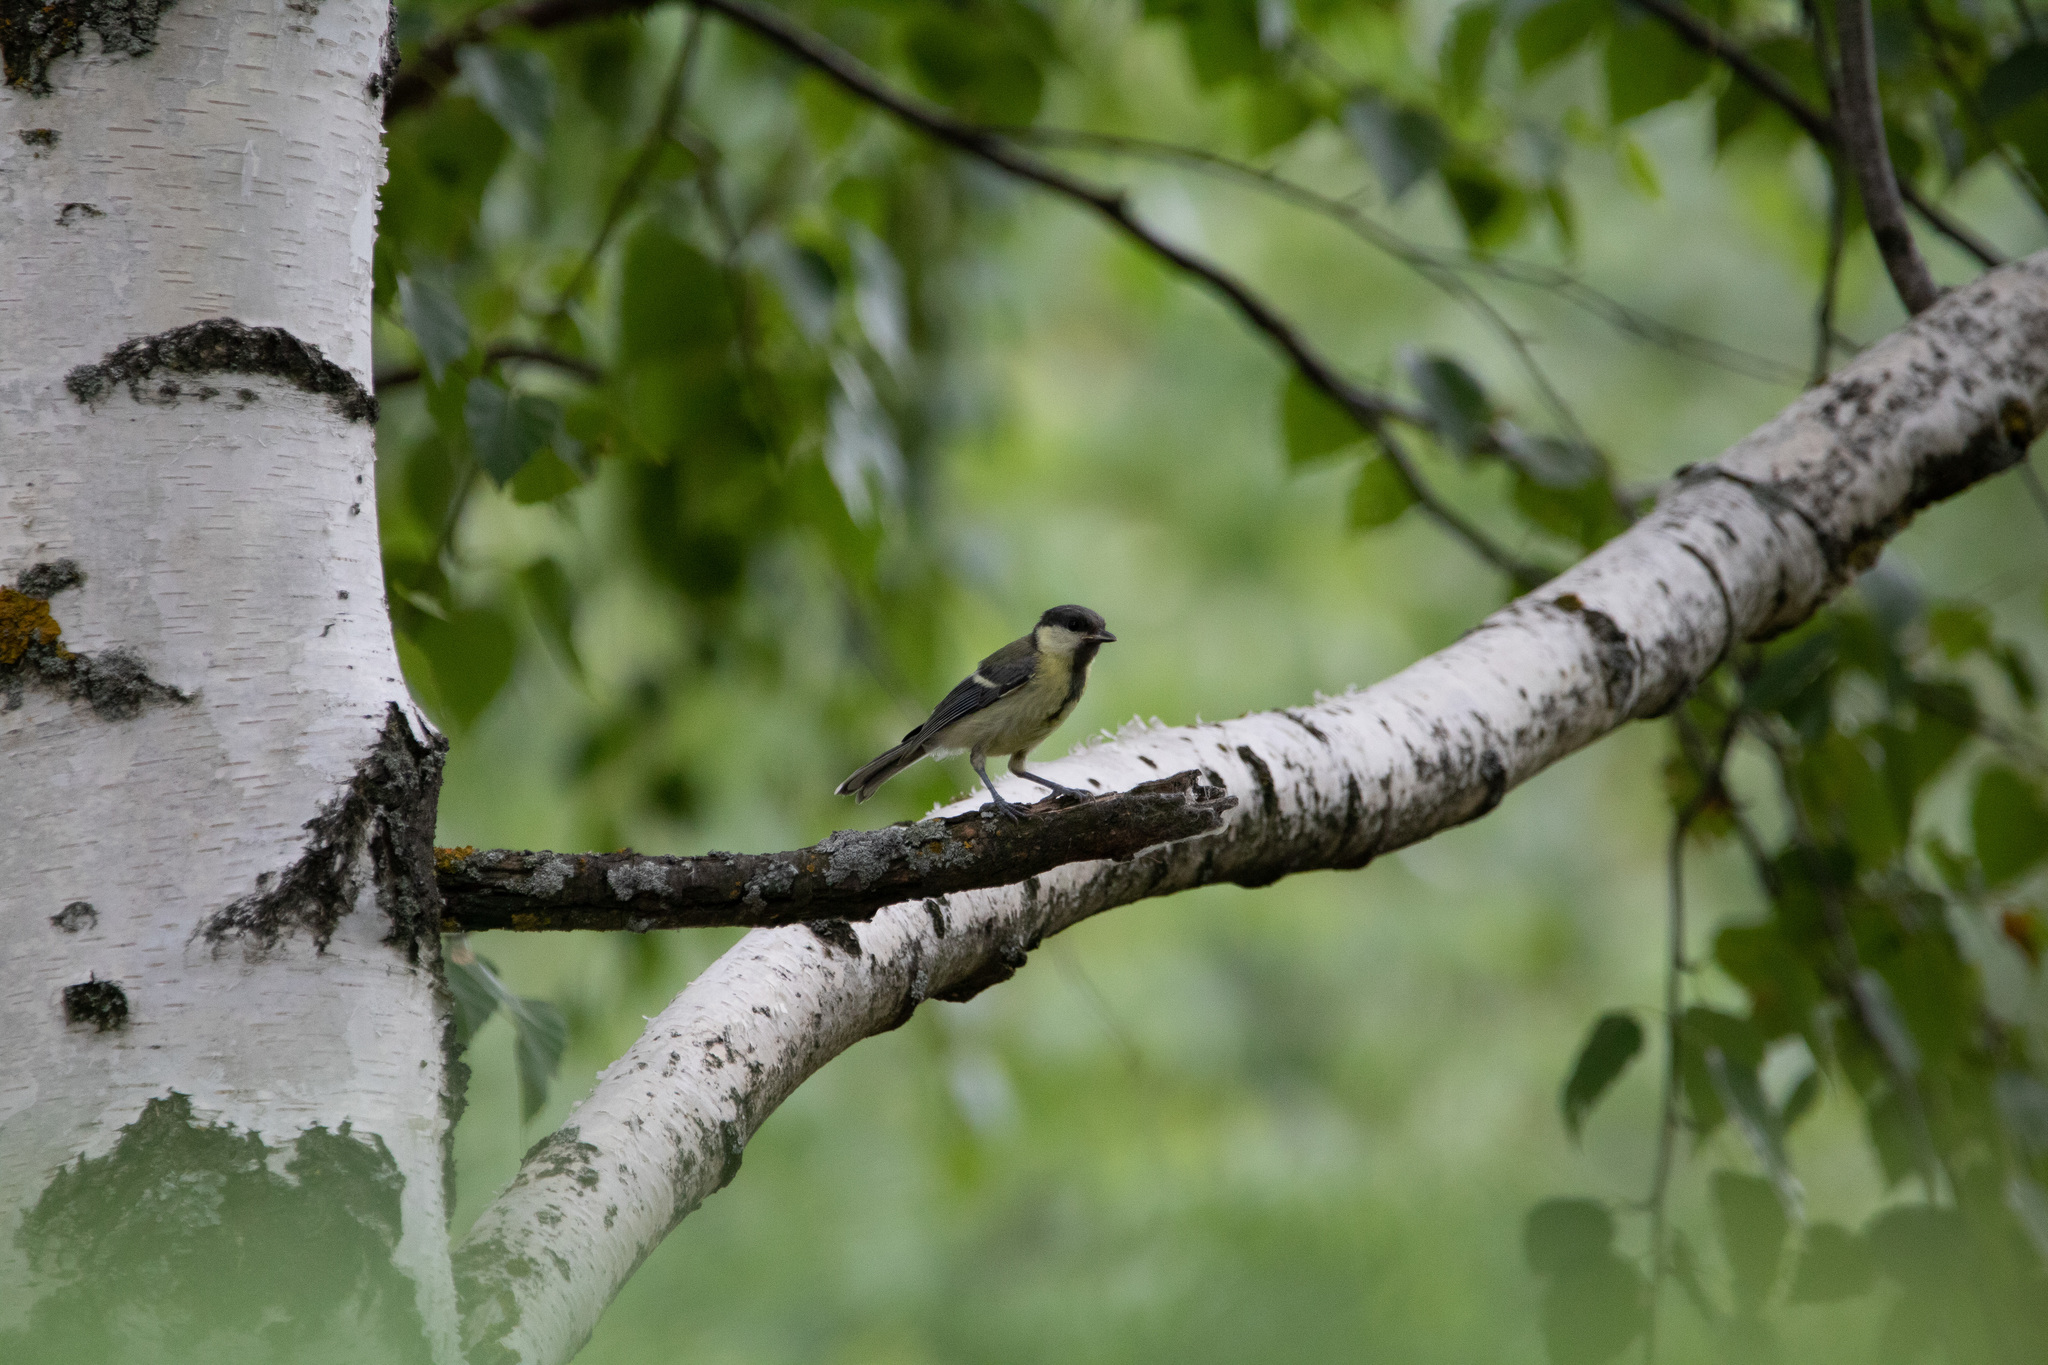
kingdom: Animalia
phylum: Chordata
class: Aves
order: Passeriformes
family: Paridae
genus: Parus
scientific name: Parus major
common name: Great tit
